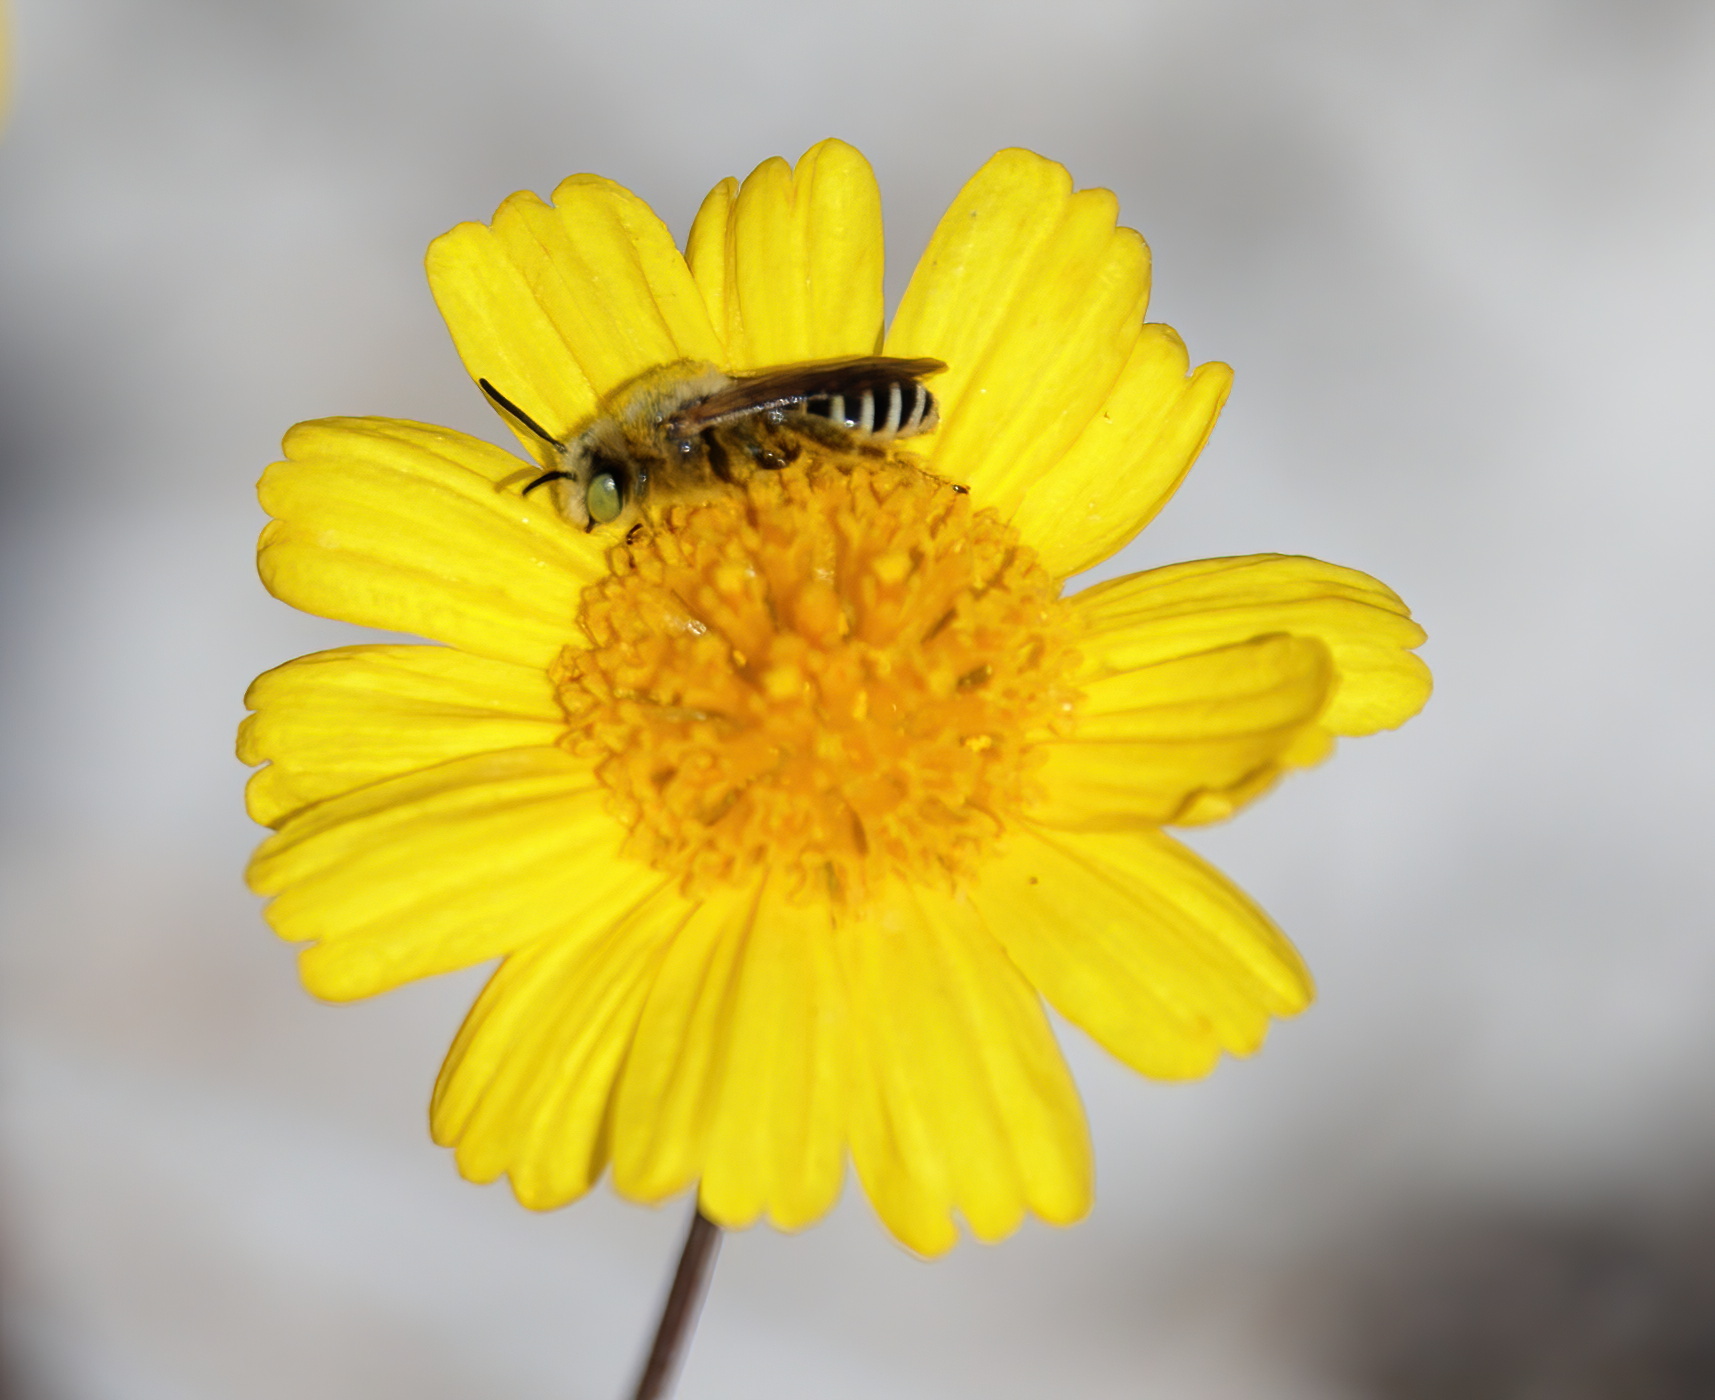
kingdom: Animalia
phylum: Arthropoda
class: Insecta
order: Hymenoptera
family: Melittidae
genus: Hesperapis
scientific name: Hesperapis oraria
